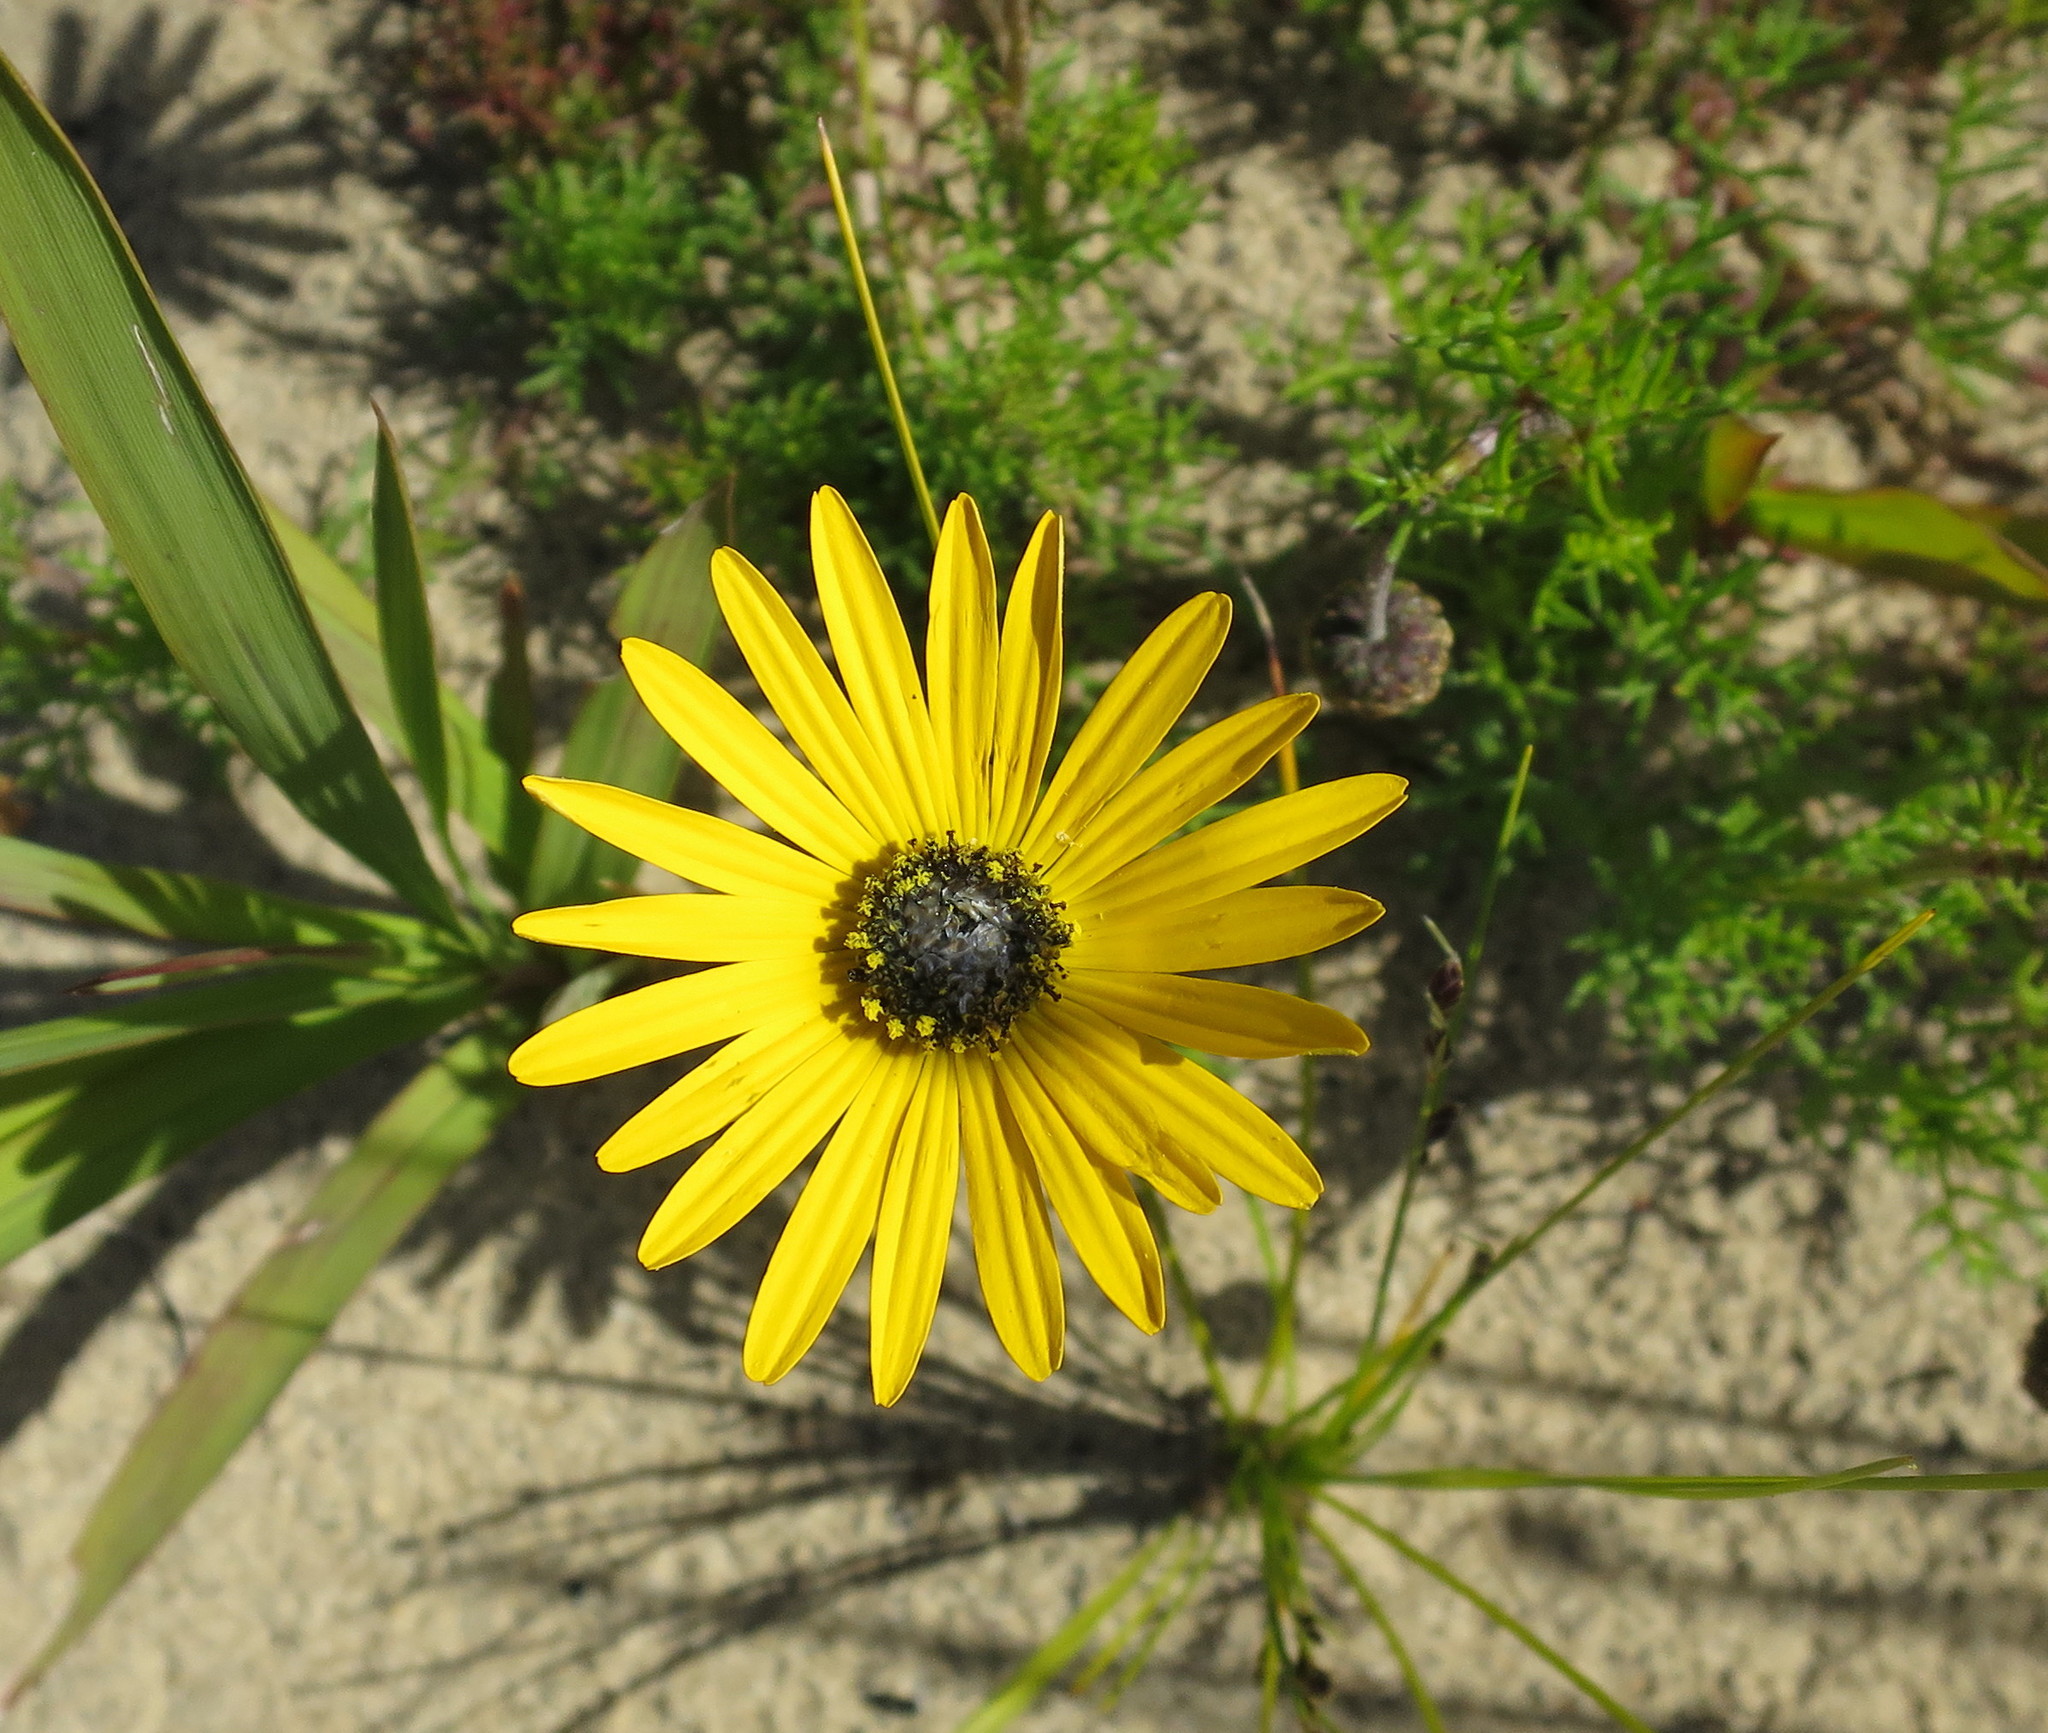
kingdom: Plantae
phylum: Tracheophyta
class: Magnoliopsida
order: Asterales
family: Asteraceae
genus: Ursinia
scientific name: Ursinia chrysanthemoides
